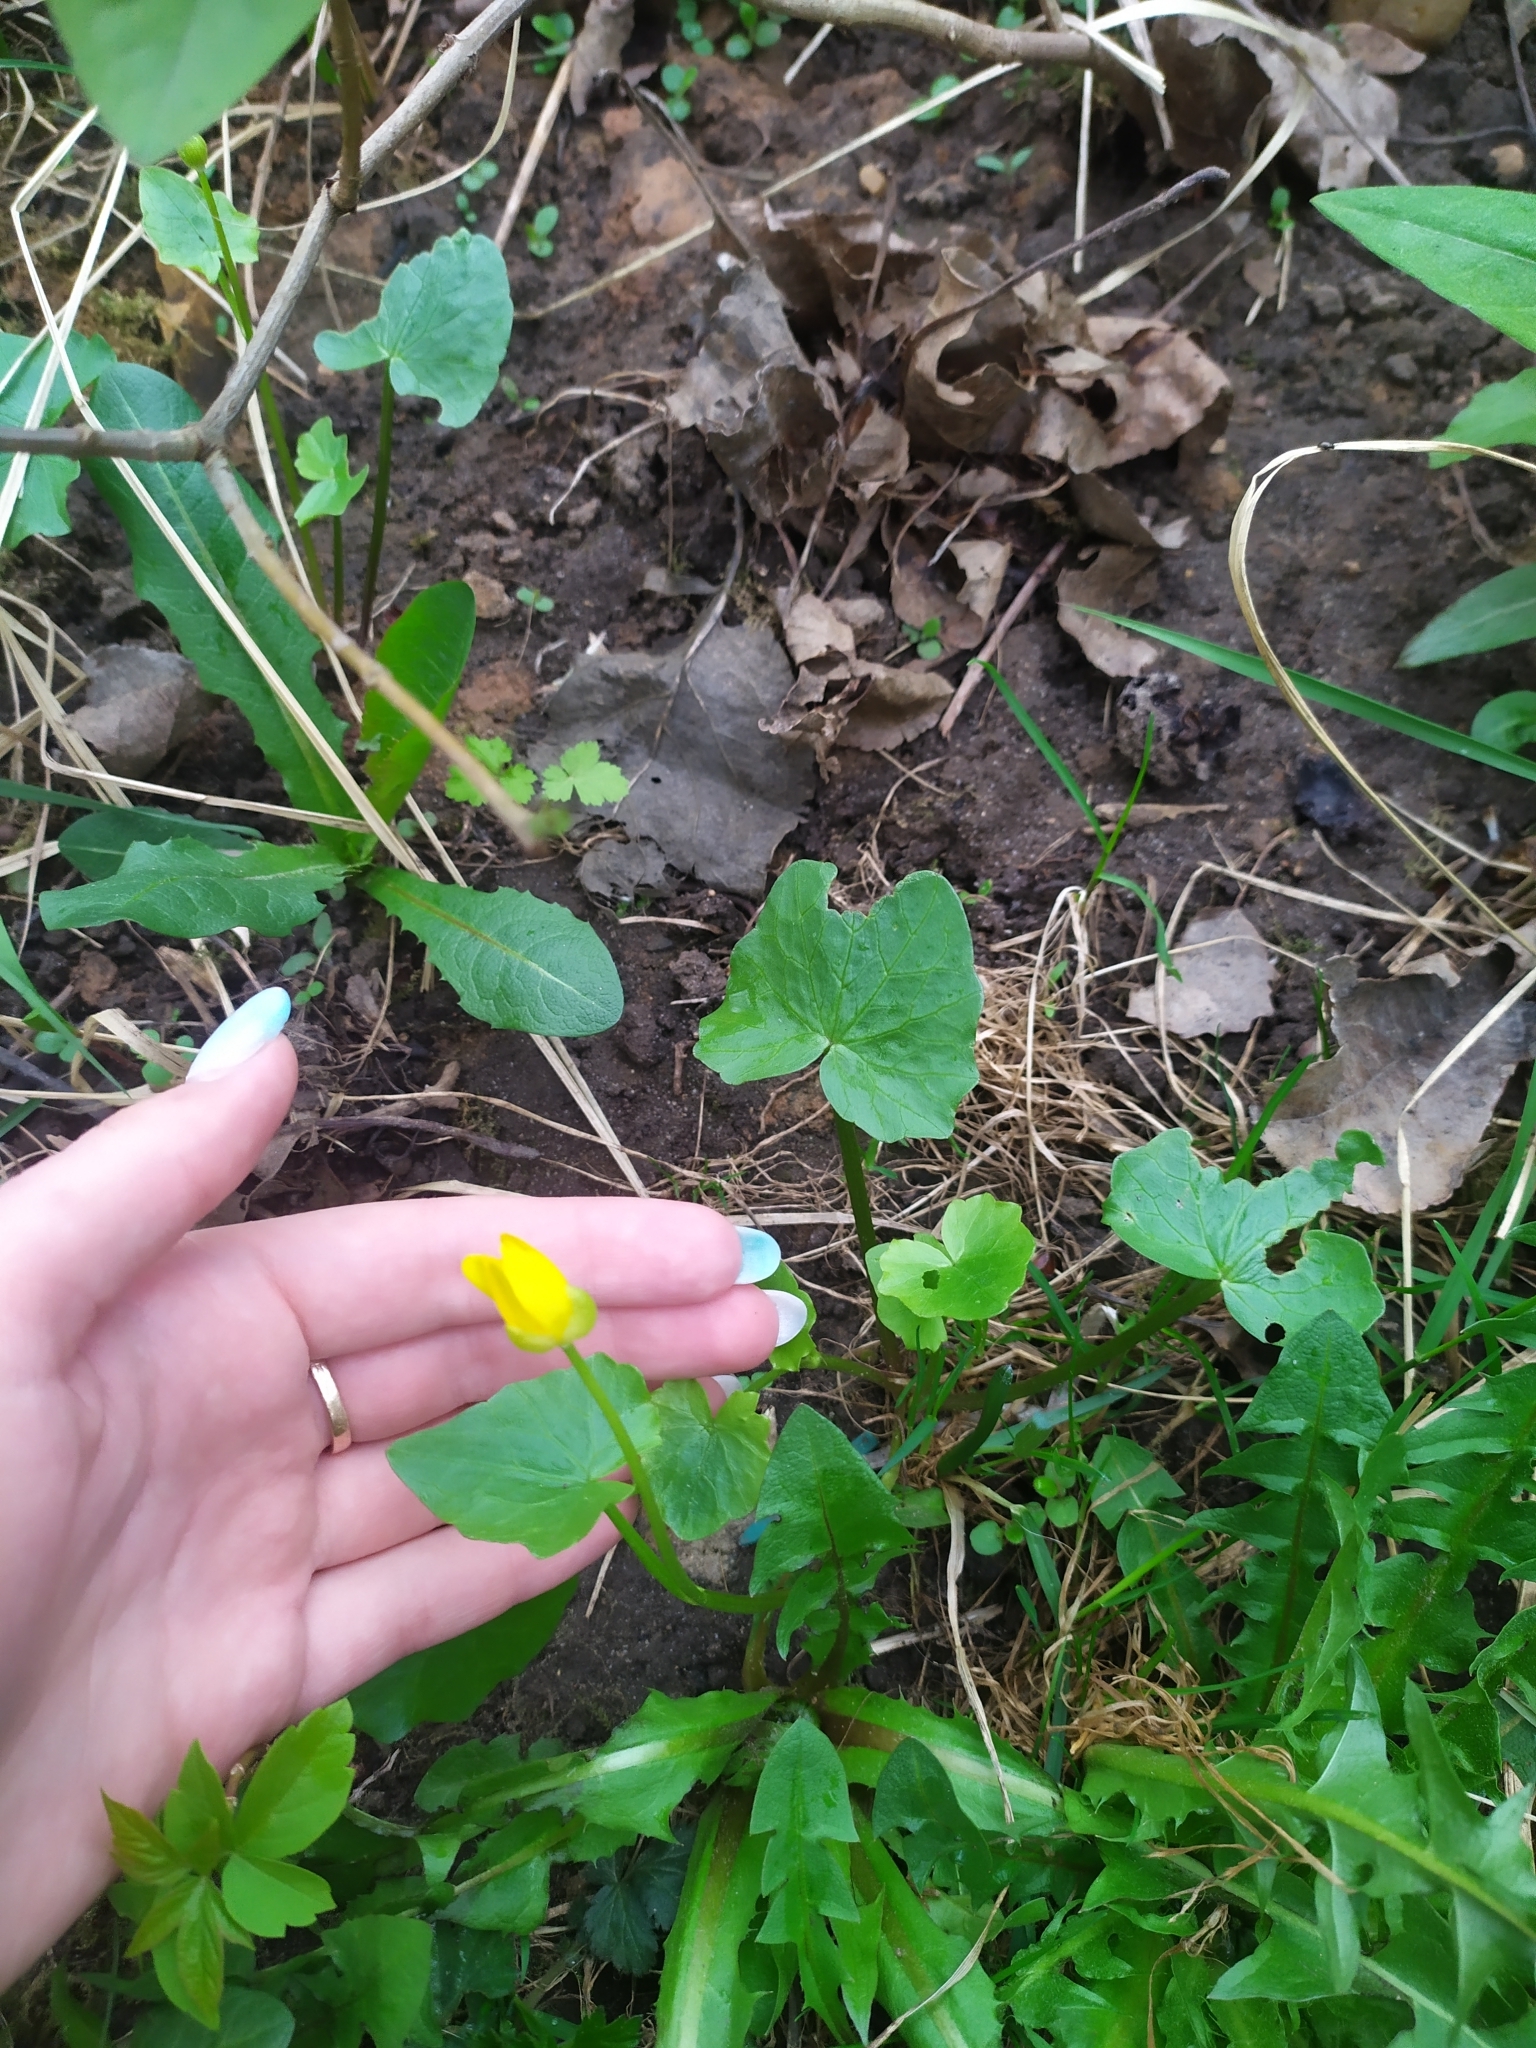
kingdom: Plantae
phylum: Tracheophyta
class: Magnoliopsida
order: Ranunculales
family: Ranunculaceae
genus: Ficaria
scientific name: Ficaria verna
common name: Lesser celandine
